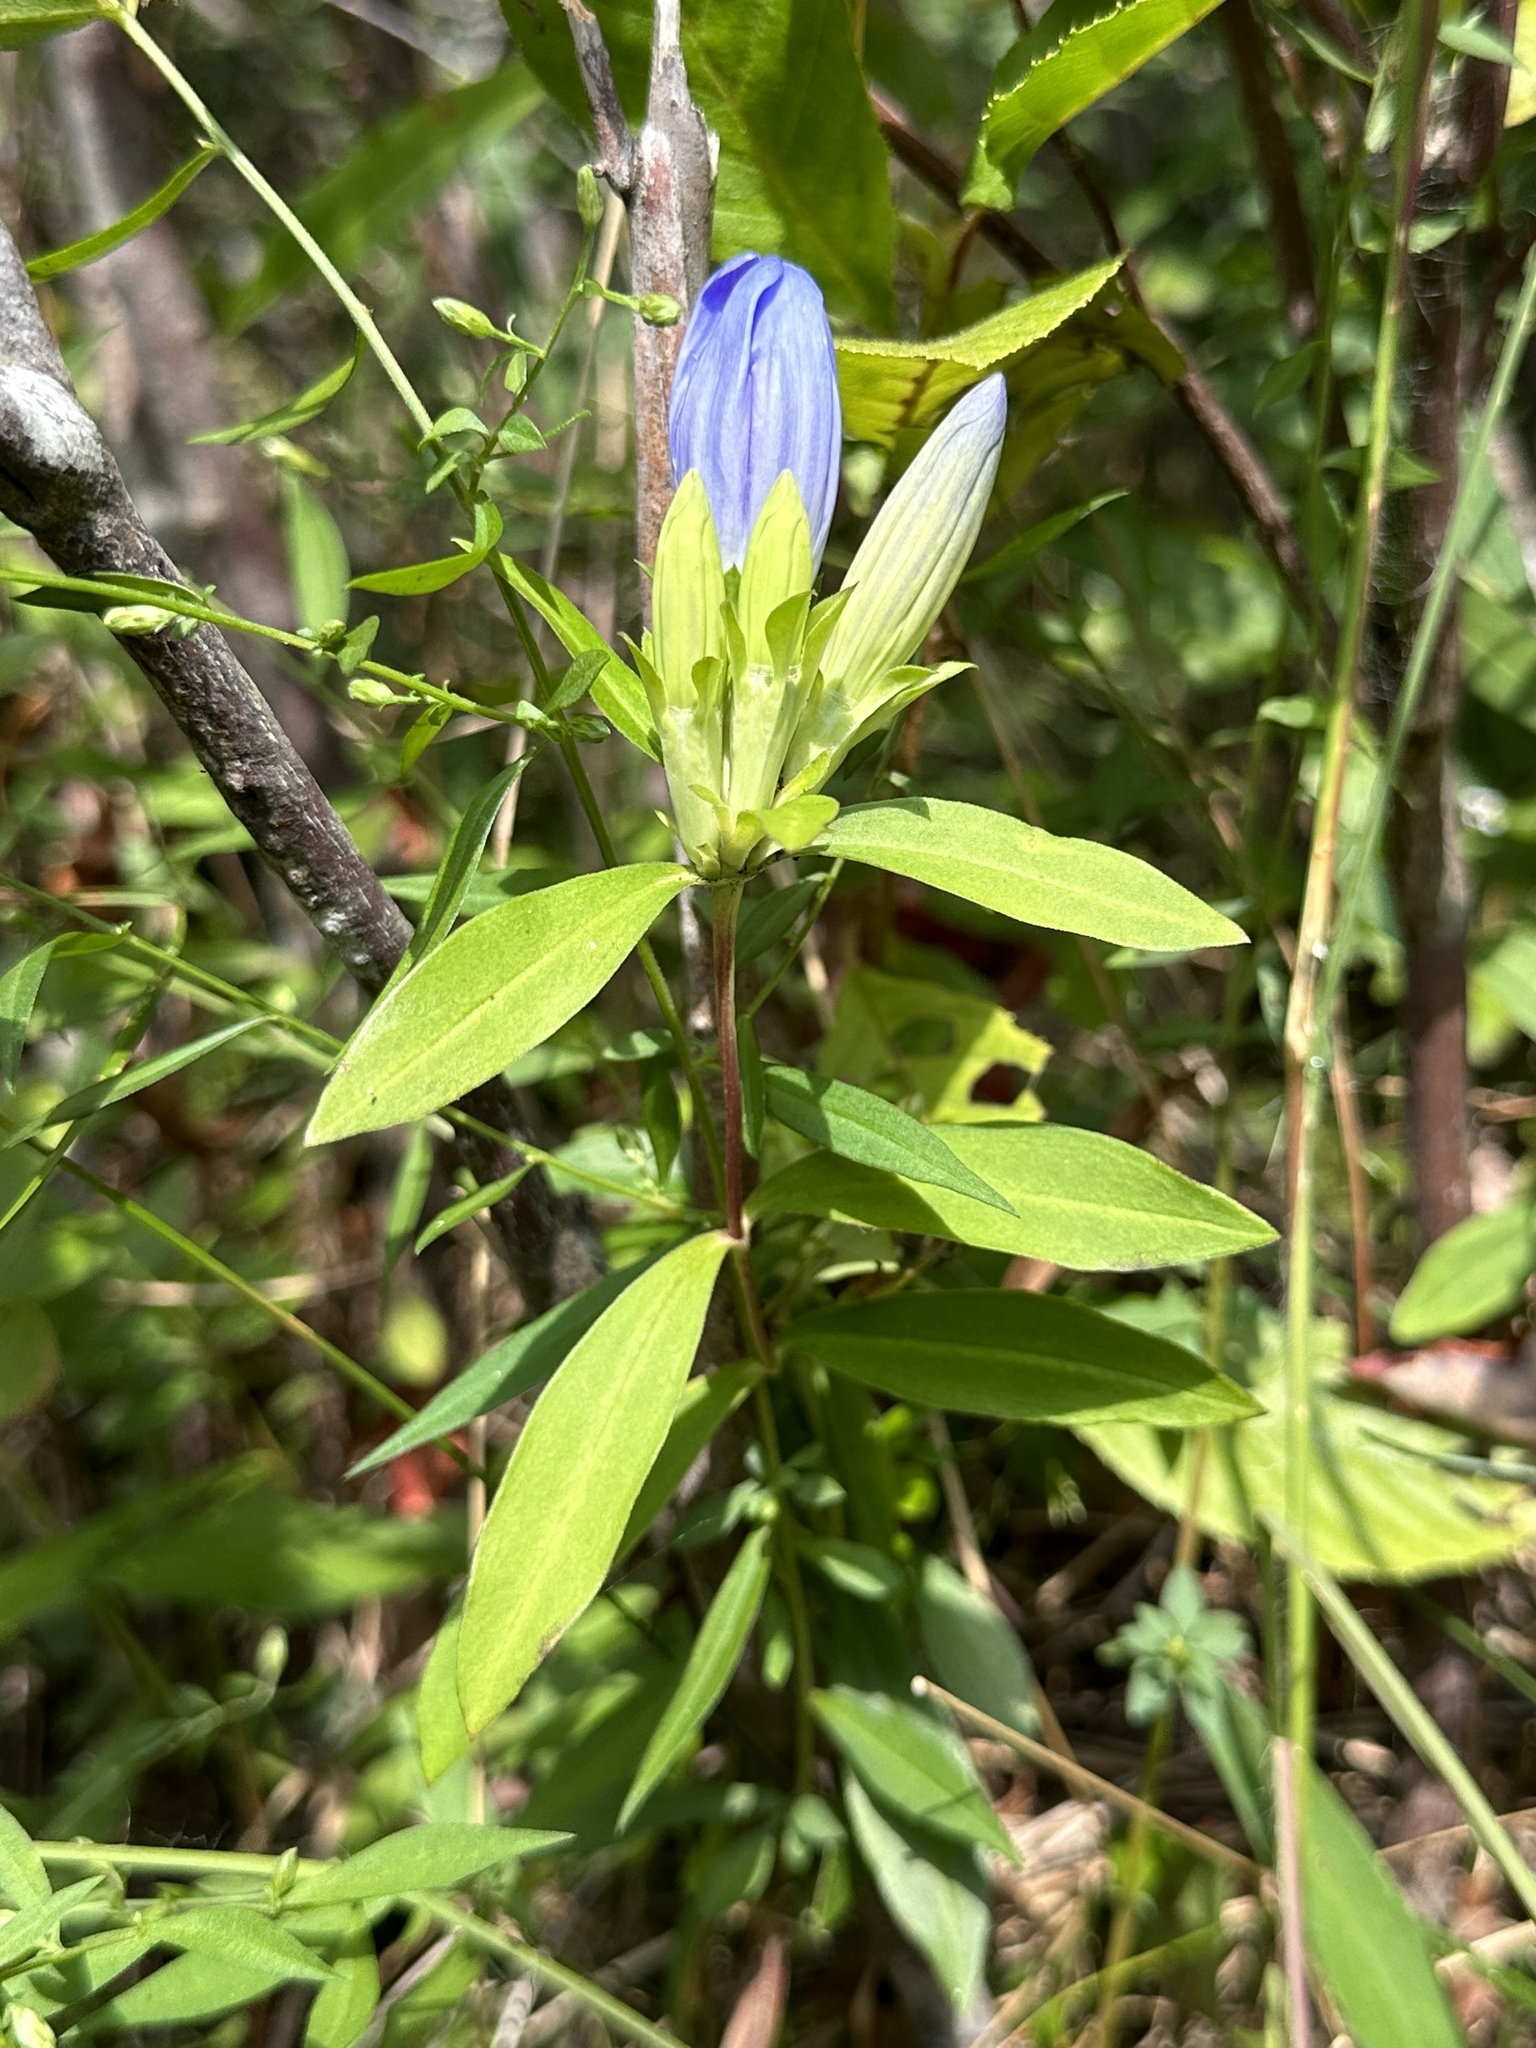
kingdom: Plantae
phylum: Tracheophyta
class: Magnoliopsida
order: Gentianales
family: Gentianaceae
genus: Gentiana
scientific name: Gentiana saponaria
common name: Soapwort gentian
